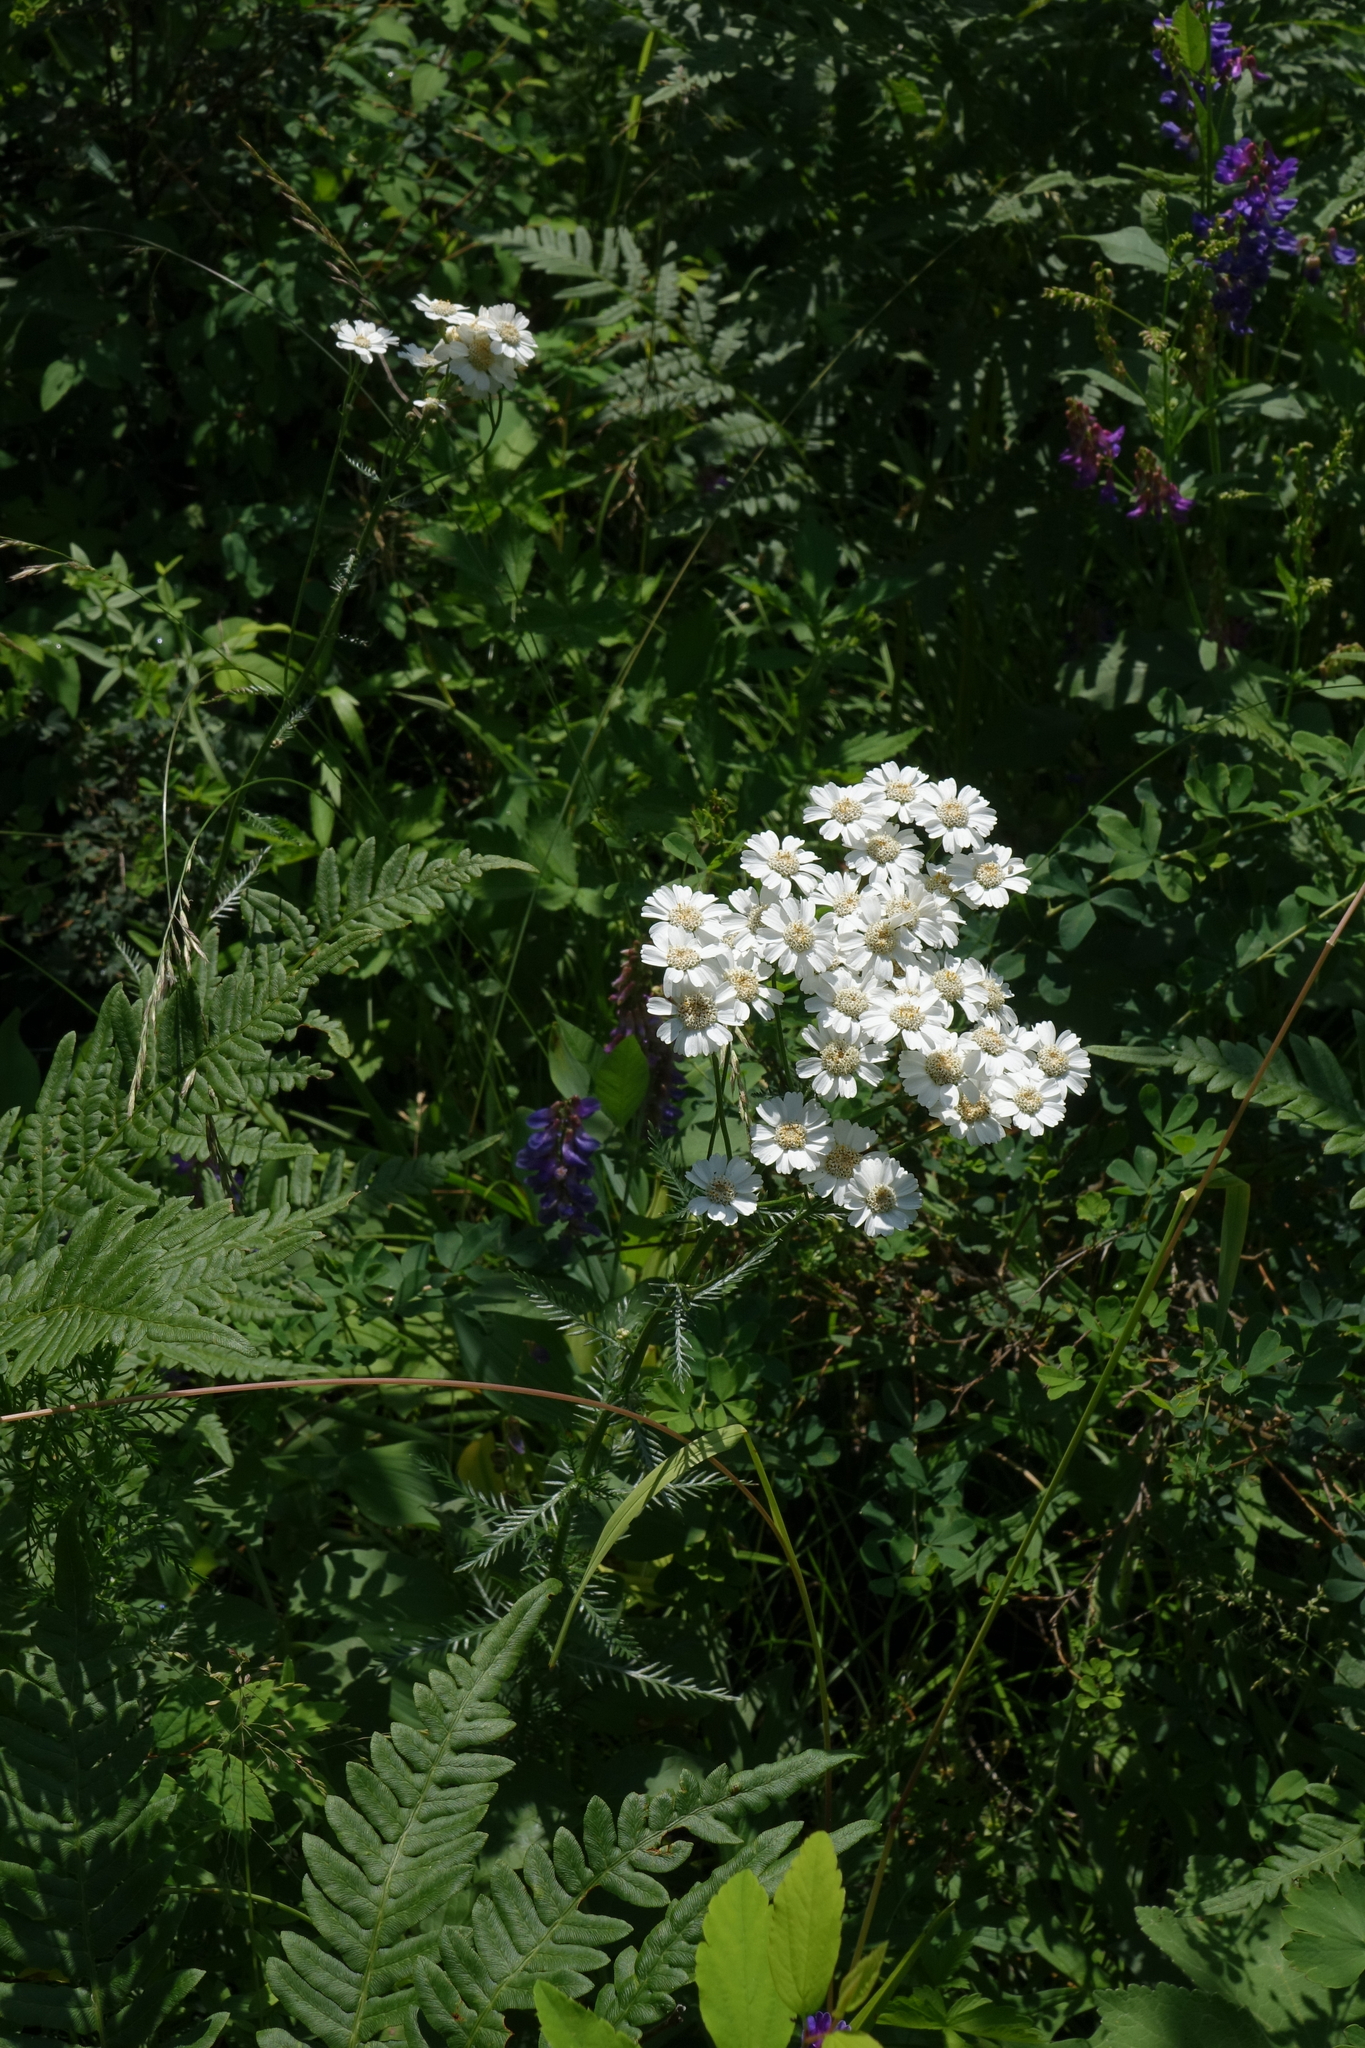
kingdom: Plantae
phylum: Tracheophyta
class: Magnoliopsida
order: Asterales
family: Asteraceae
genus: Achillea
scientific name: Achillea impatiens
